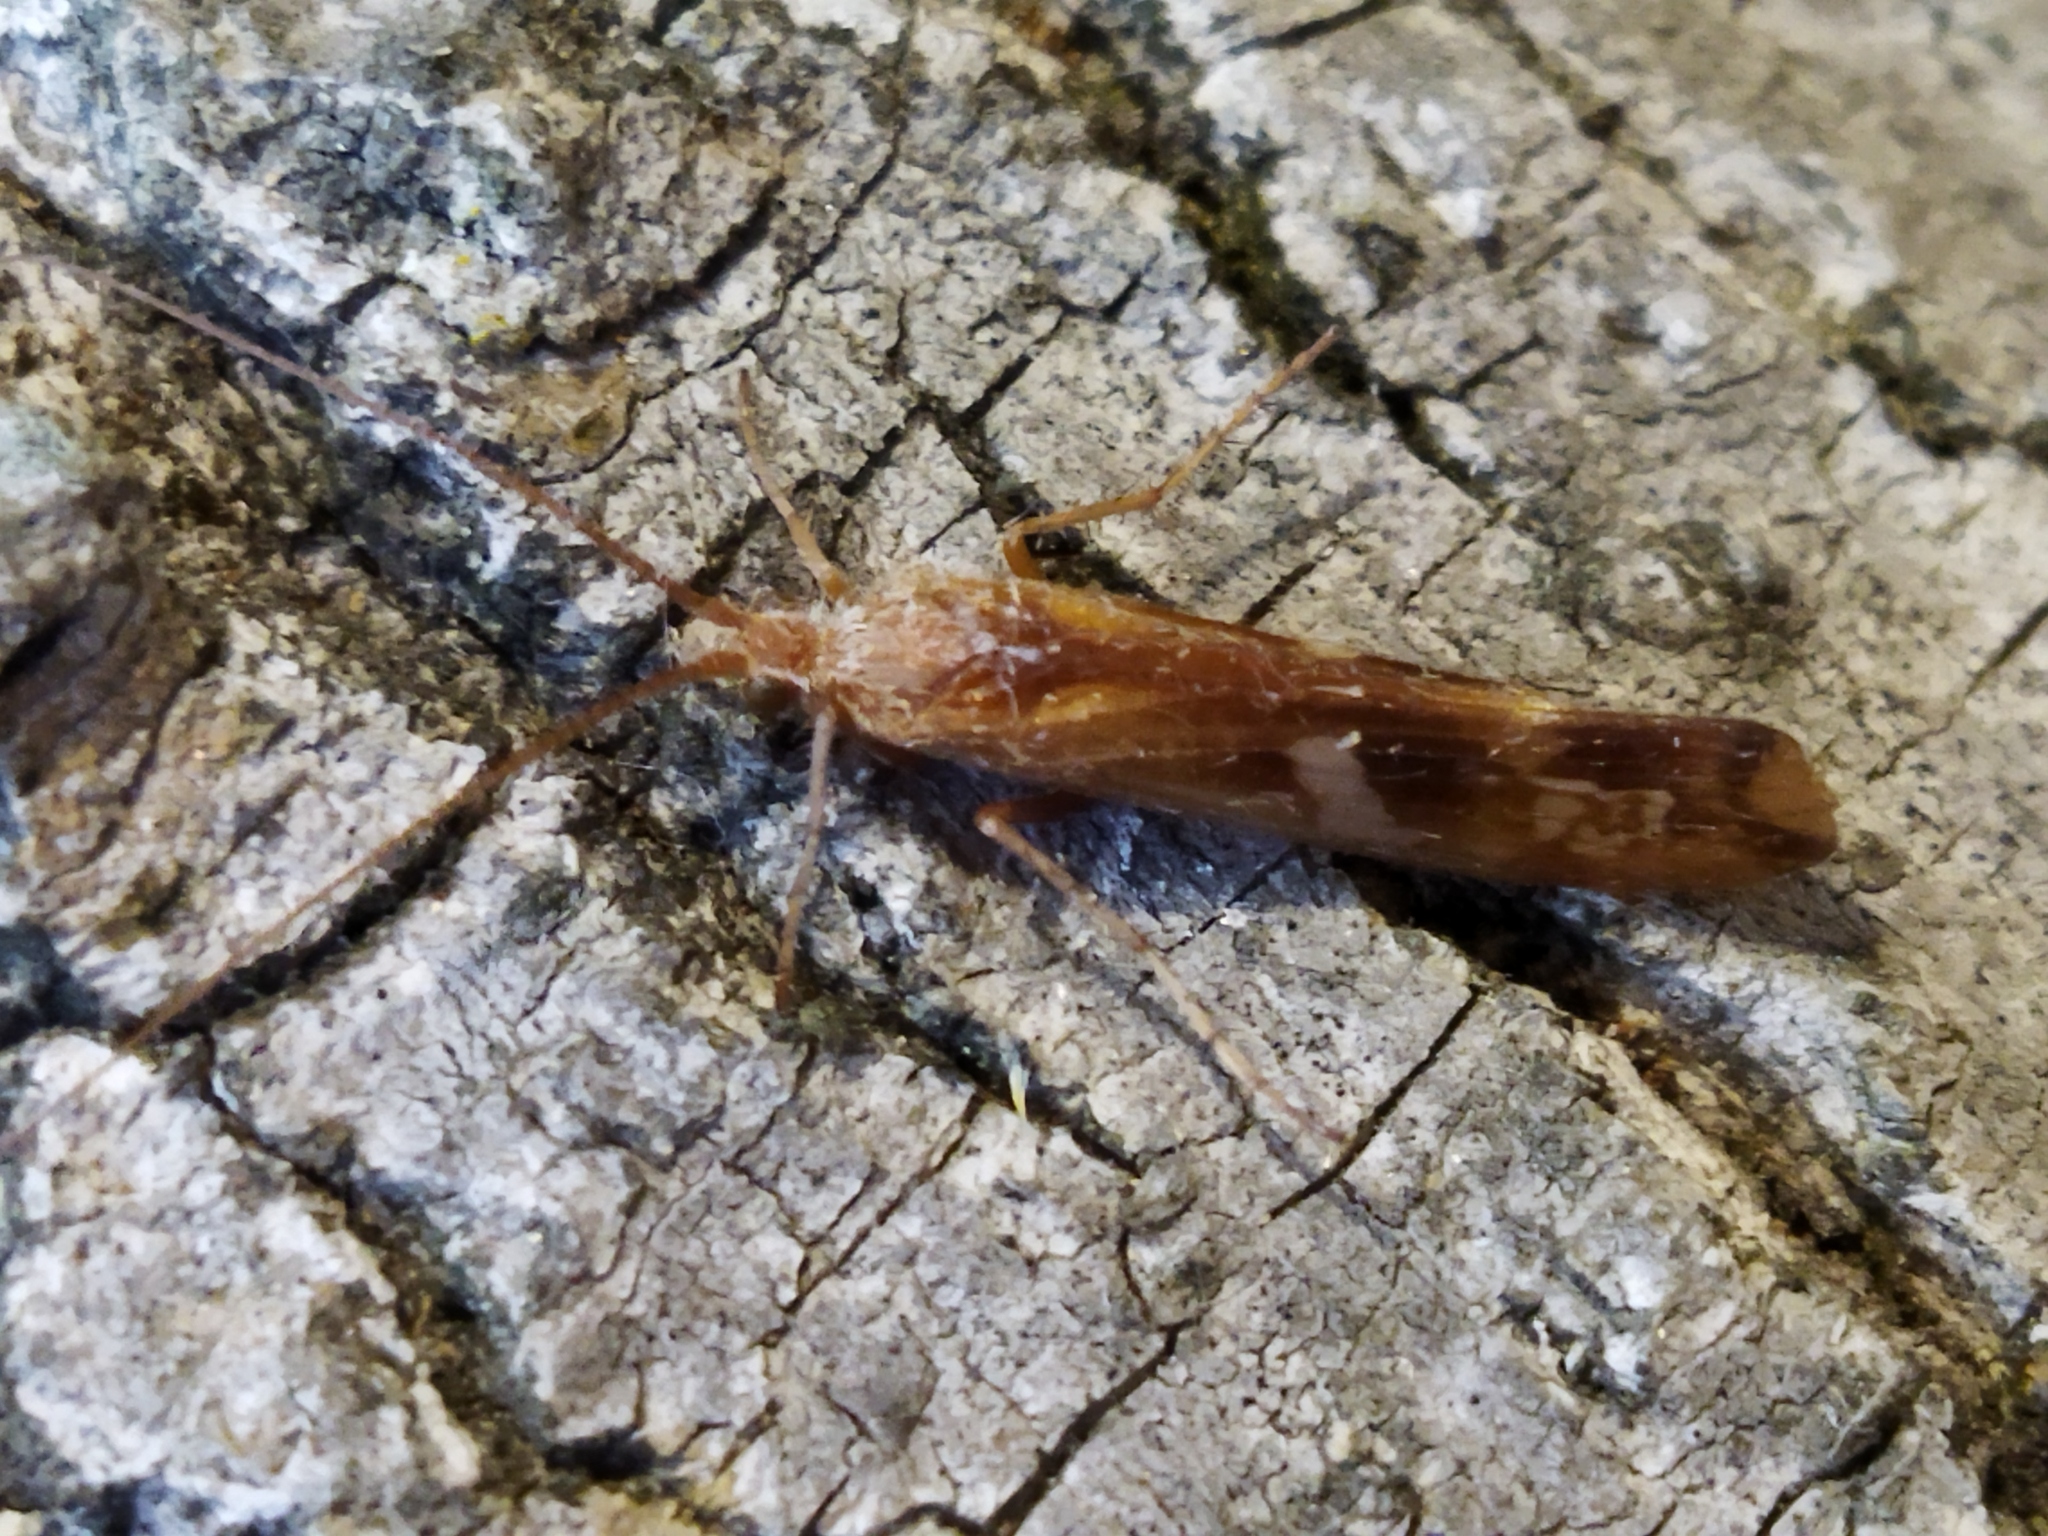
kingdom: Animalia
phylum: Arthropoda
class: Insecta
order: Trichoptera
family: Limnephilidae
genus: Limnephilus
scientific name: Limnephilus lunatus
